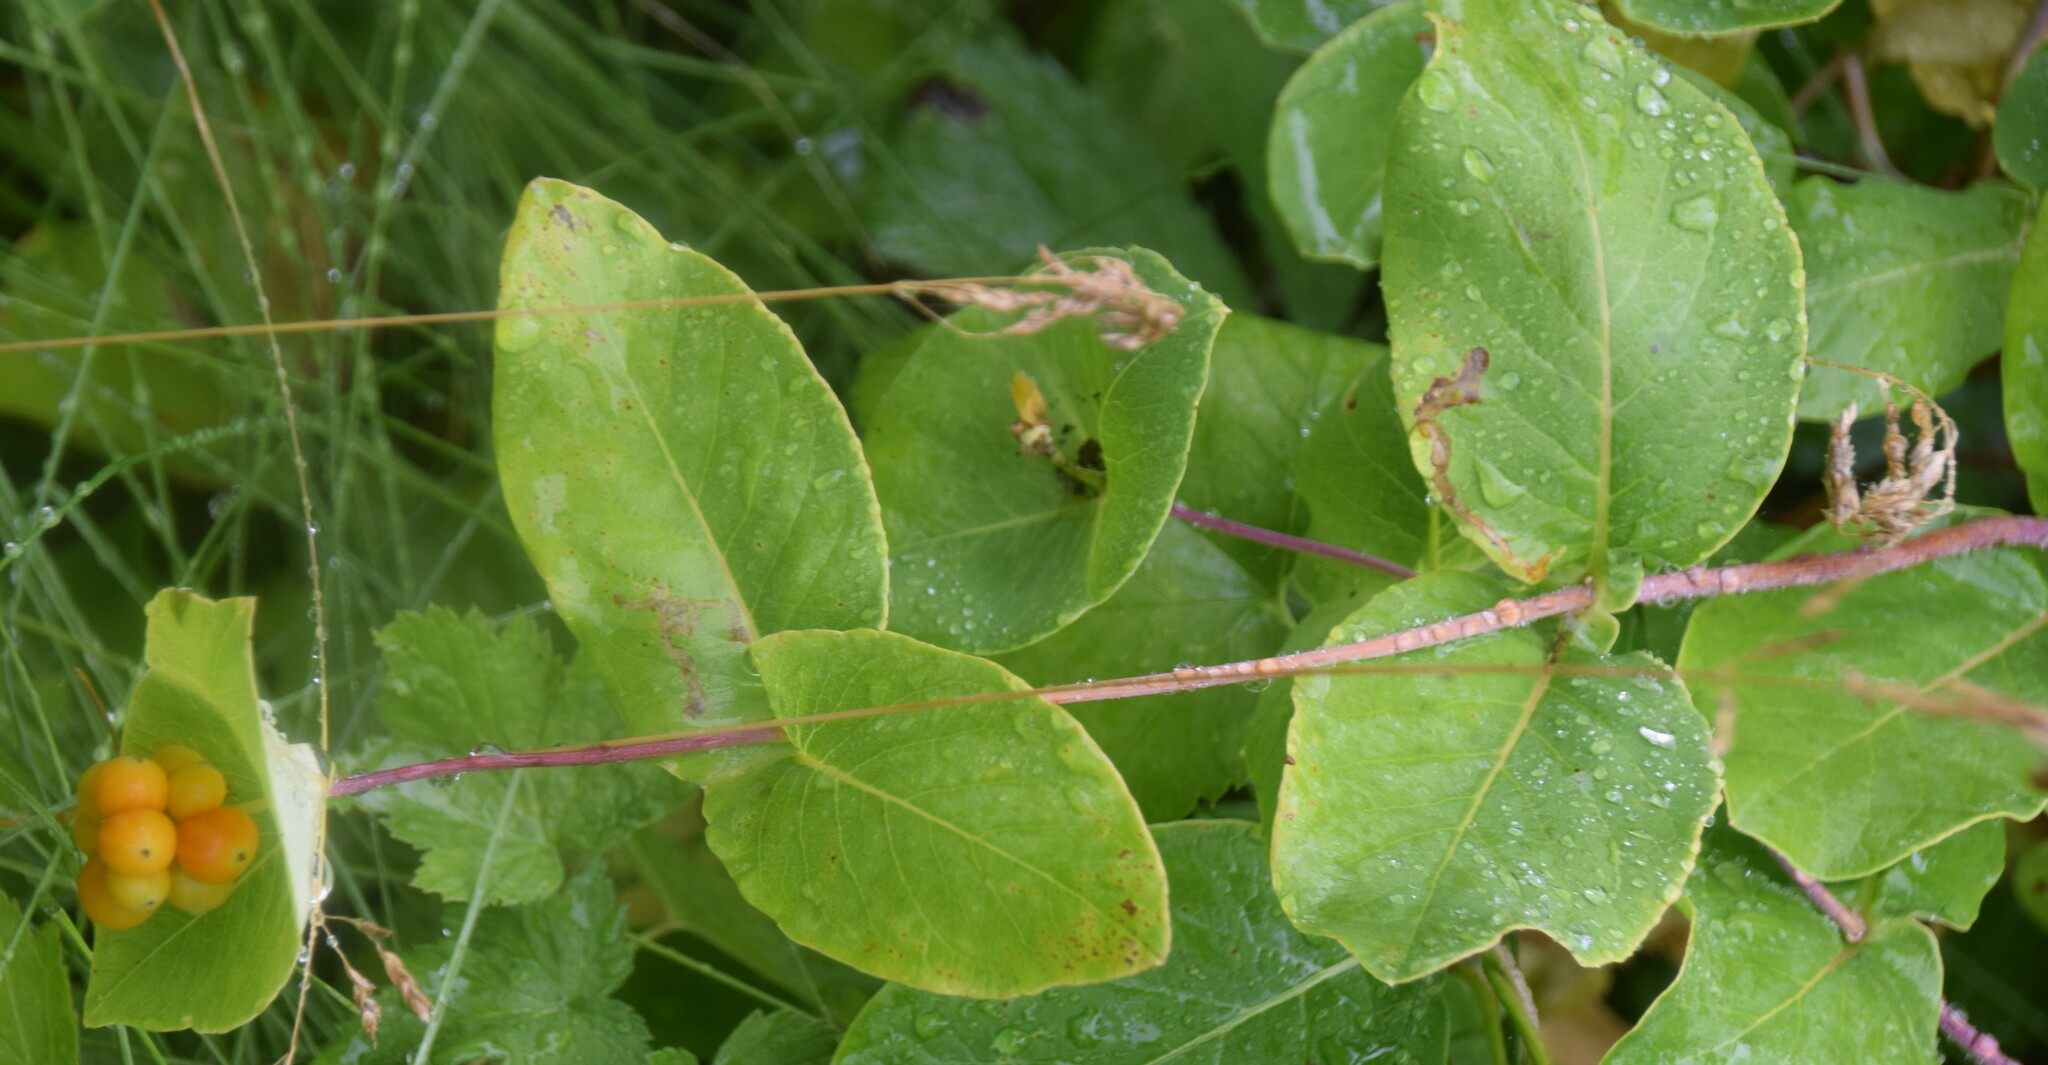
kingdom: Plantae
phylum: Tracheophyta
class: Magnoliopsida
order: Dipsacales
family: Caprifoliaceae
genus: Lonicera
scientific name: Lonicera dioica
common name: Limber honeysuckle
